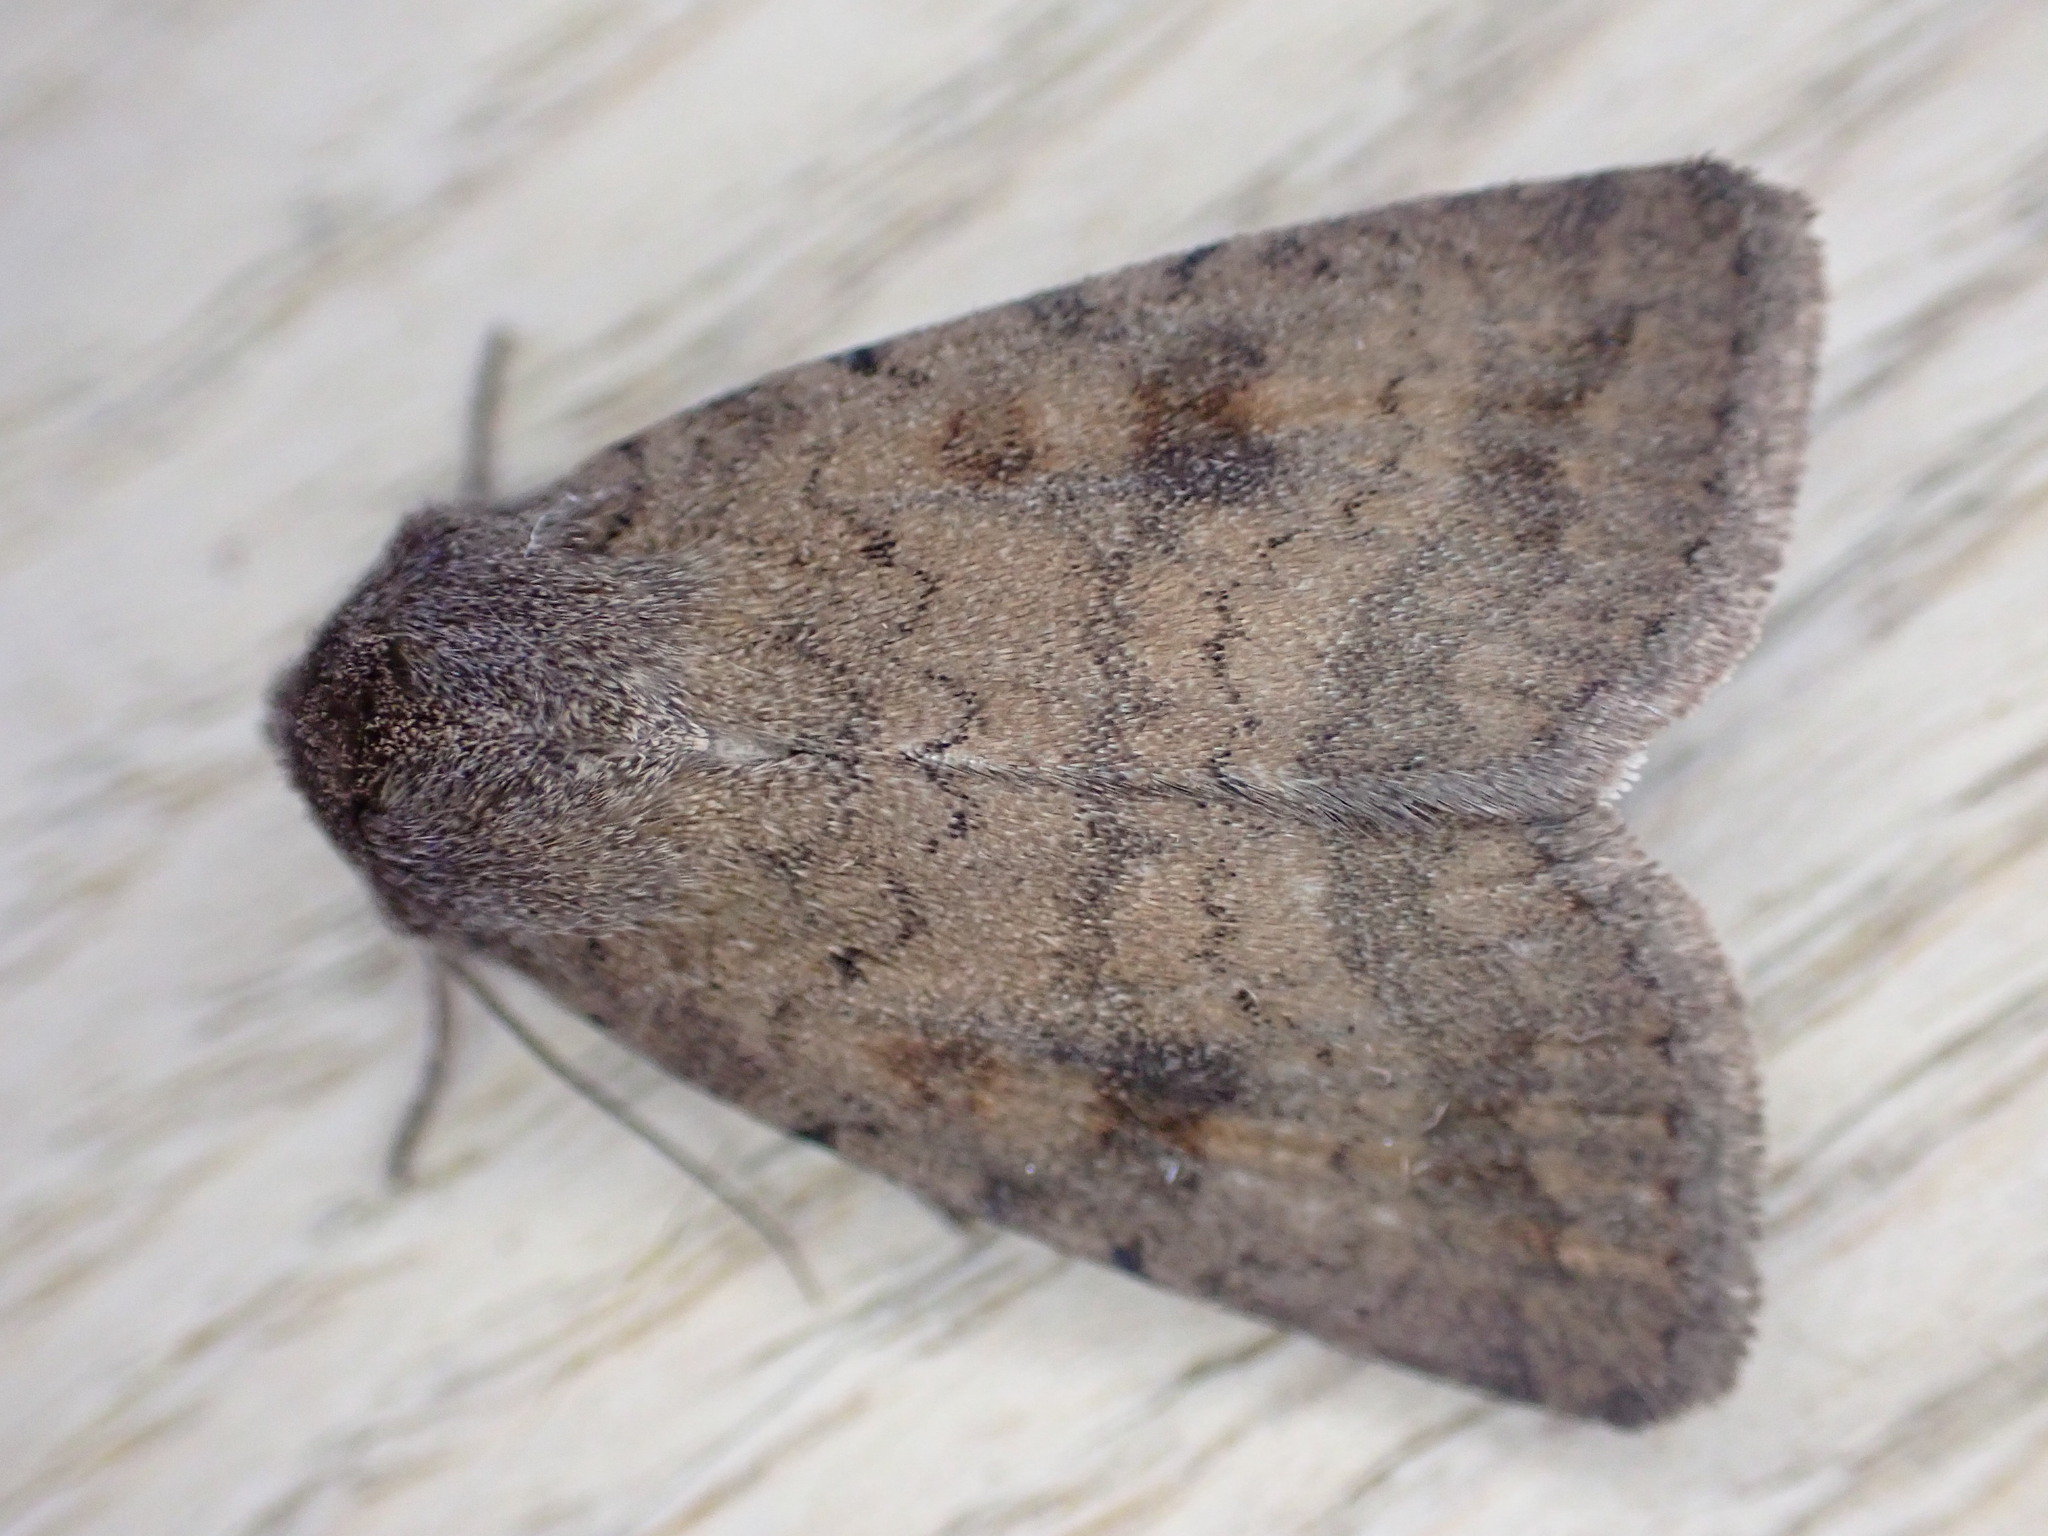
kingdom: Animalia
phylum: Arthropoda
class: Insecta
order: Lepidoptera
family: Noctuidae
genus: Caradrina
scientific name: Caradrina morpheus
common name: Mottled rustic
